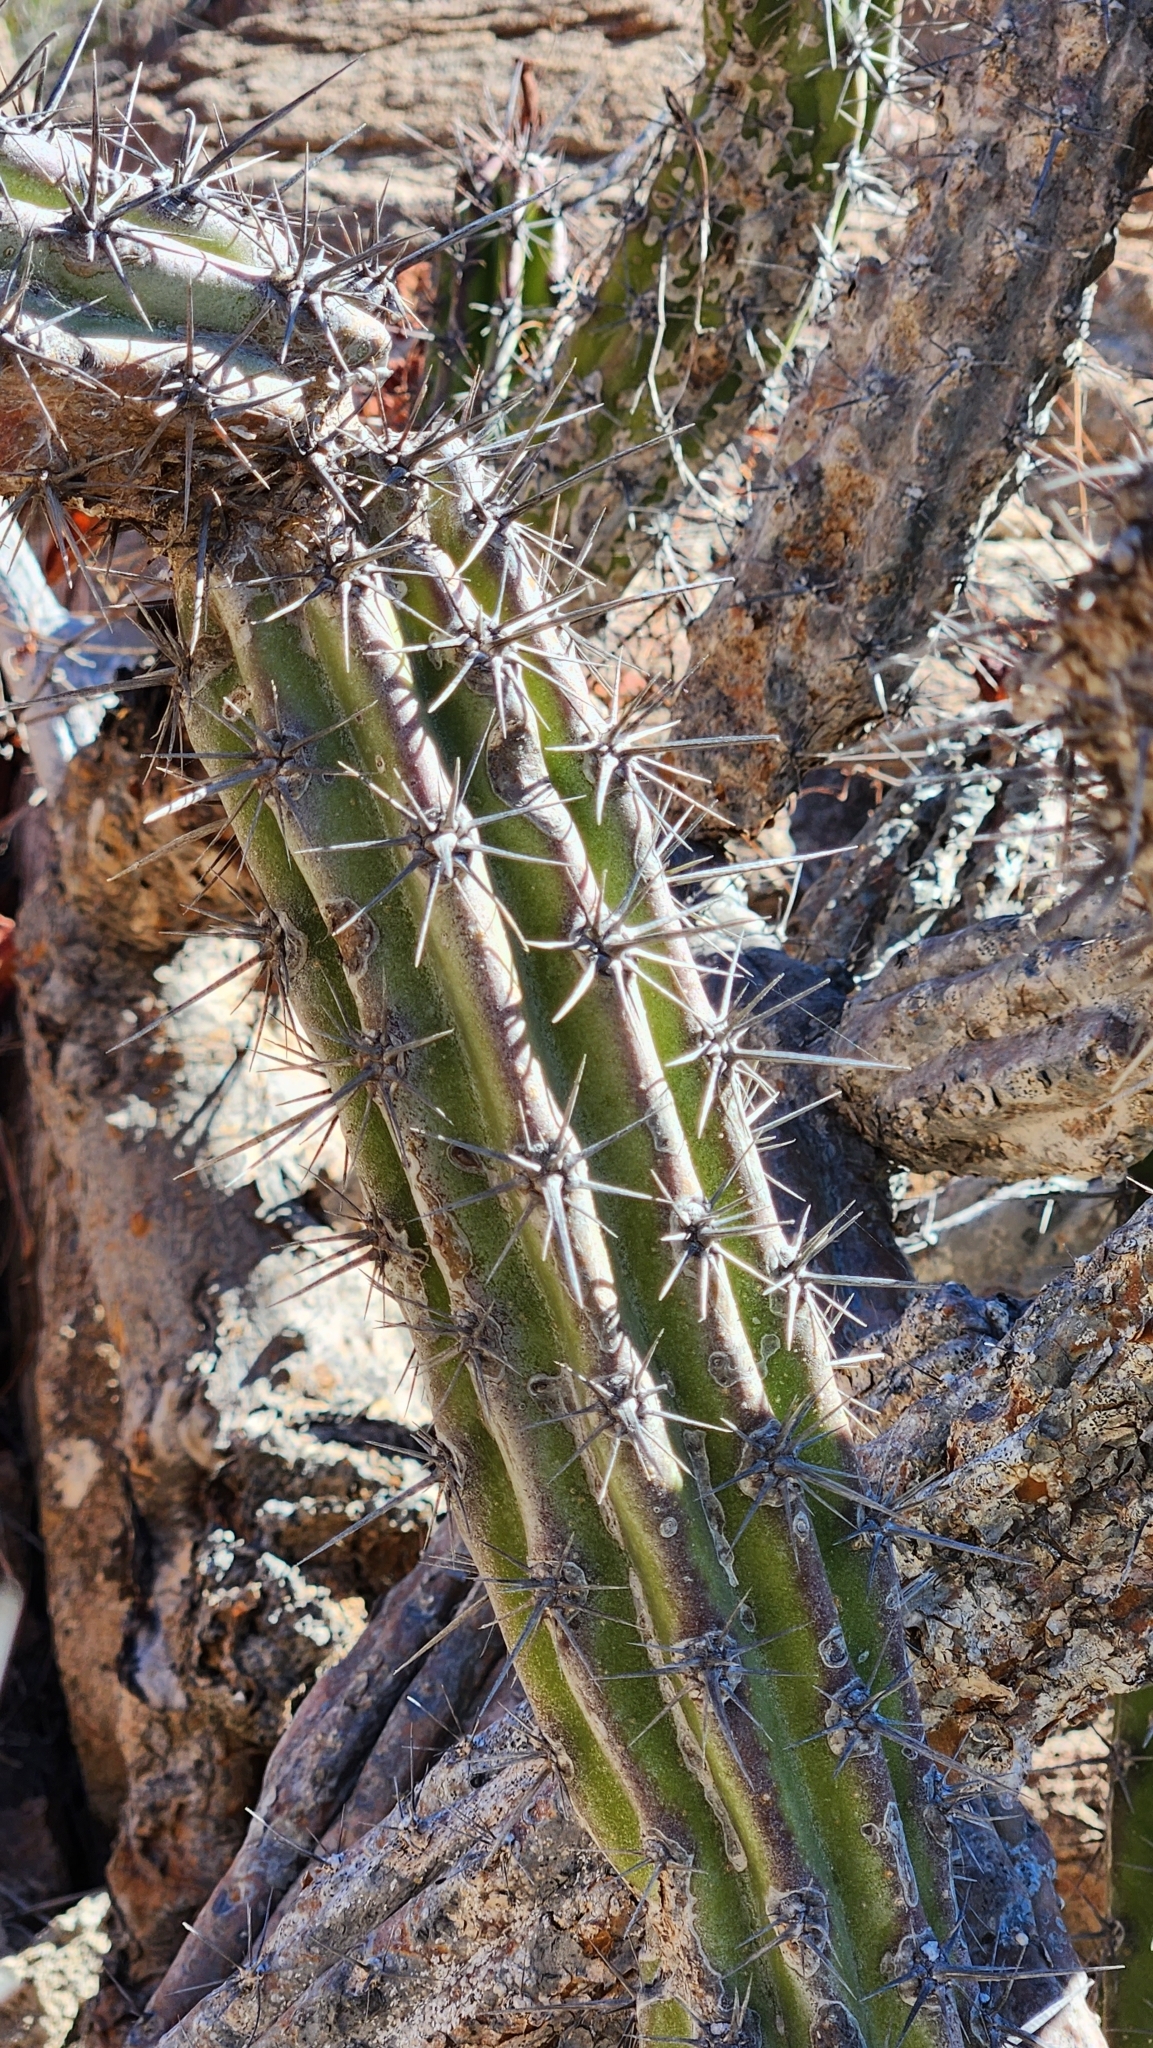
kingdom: Plantae
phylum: Tracheophyta
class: Magnoliopsida
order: Caryophyllales
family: Cactaceae
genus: Stenocereus
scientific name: Stenocereus gummosus
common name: Dagger cactus
